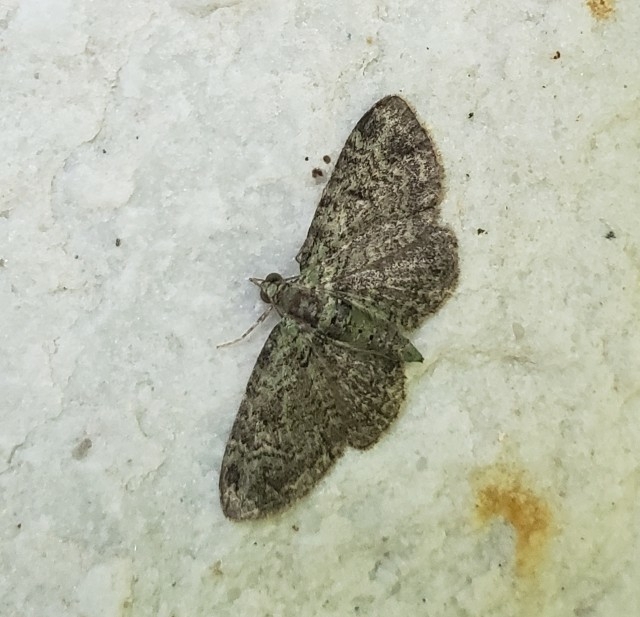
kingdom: Animalia
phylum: Arthropoda
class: Insecta
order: Lepidoptera
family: Geometridae
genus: Pasiphila
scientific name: Pasiphila rectangulata
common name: Green pug
